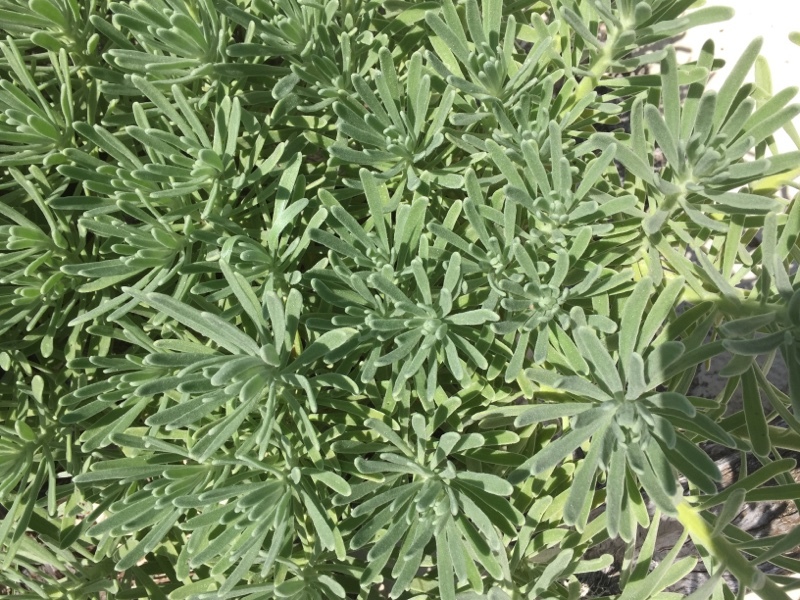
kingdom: Plantae
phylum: Tracheophyta
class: Magnoliopsida
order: Boraginales
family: Heliotropiaceae
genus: Tournefortia
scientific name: Tournefortia gnaphalodes
